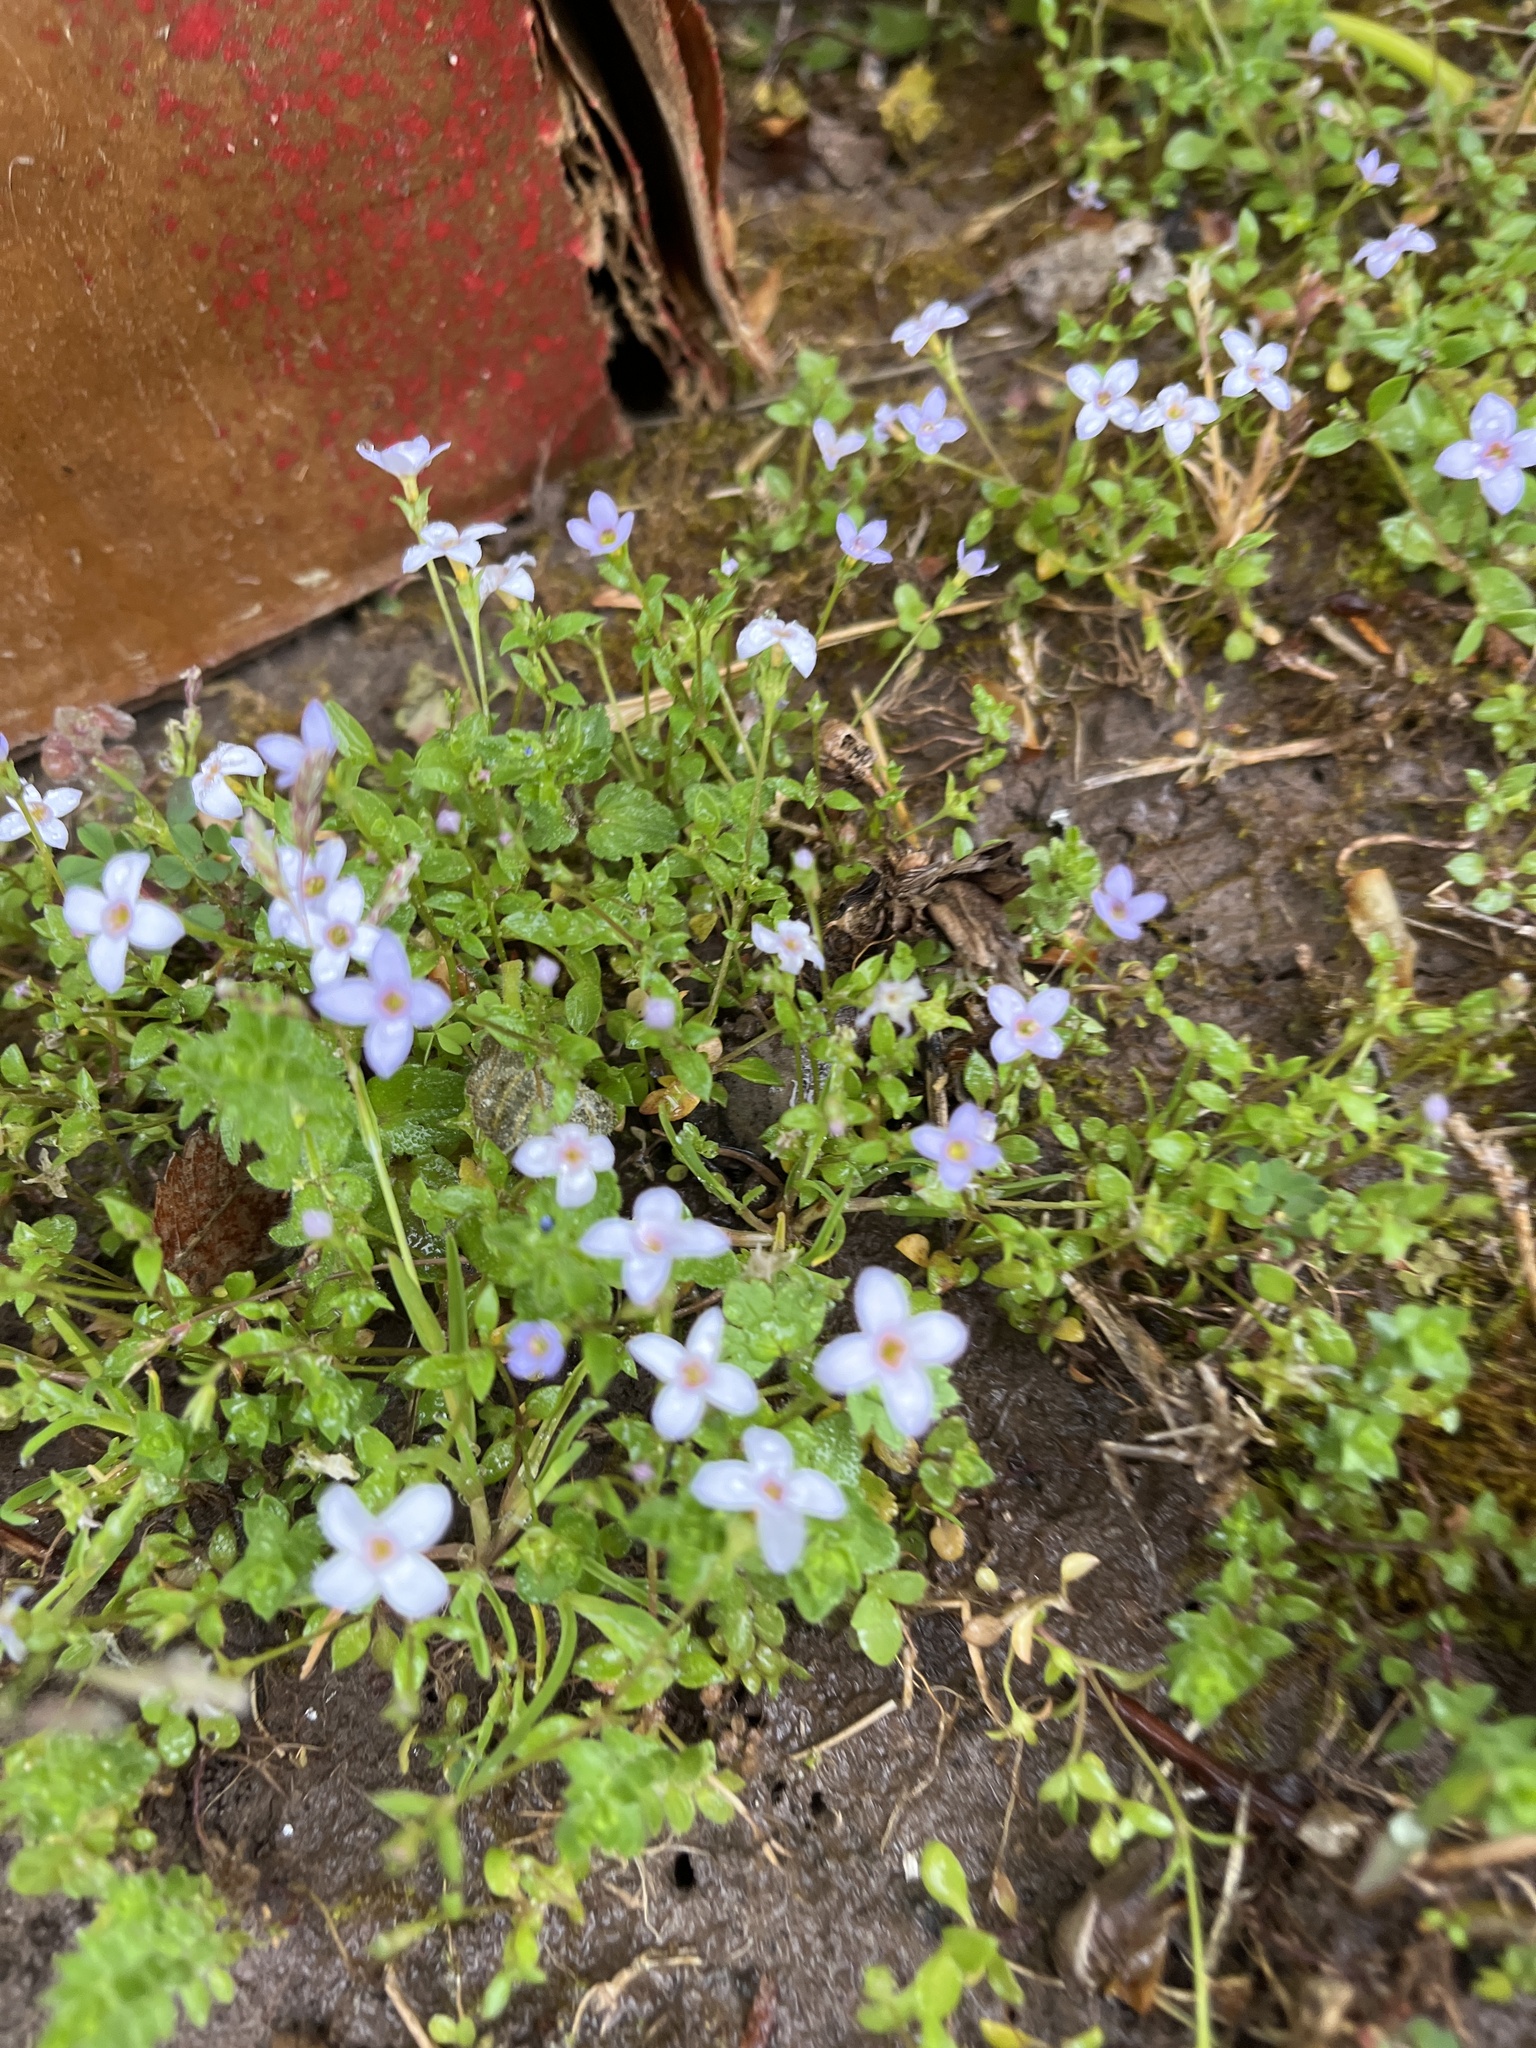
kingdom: Plantae
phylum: Tracheophyta
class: Magnoliopsida
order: Gentianales
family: Rubiaceae
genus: Houstonia
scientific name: Houstonia pusilla
